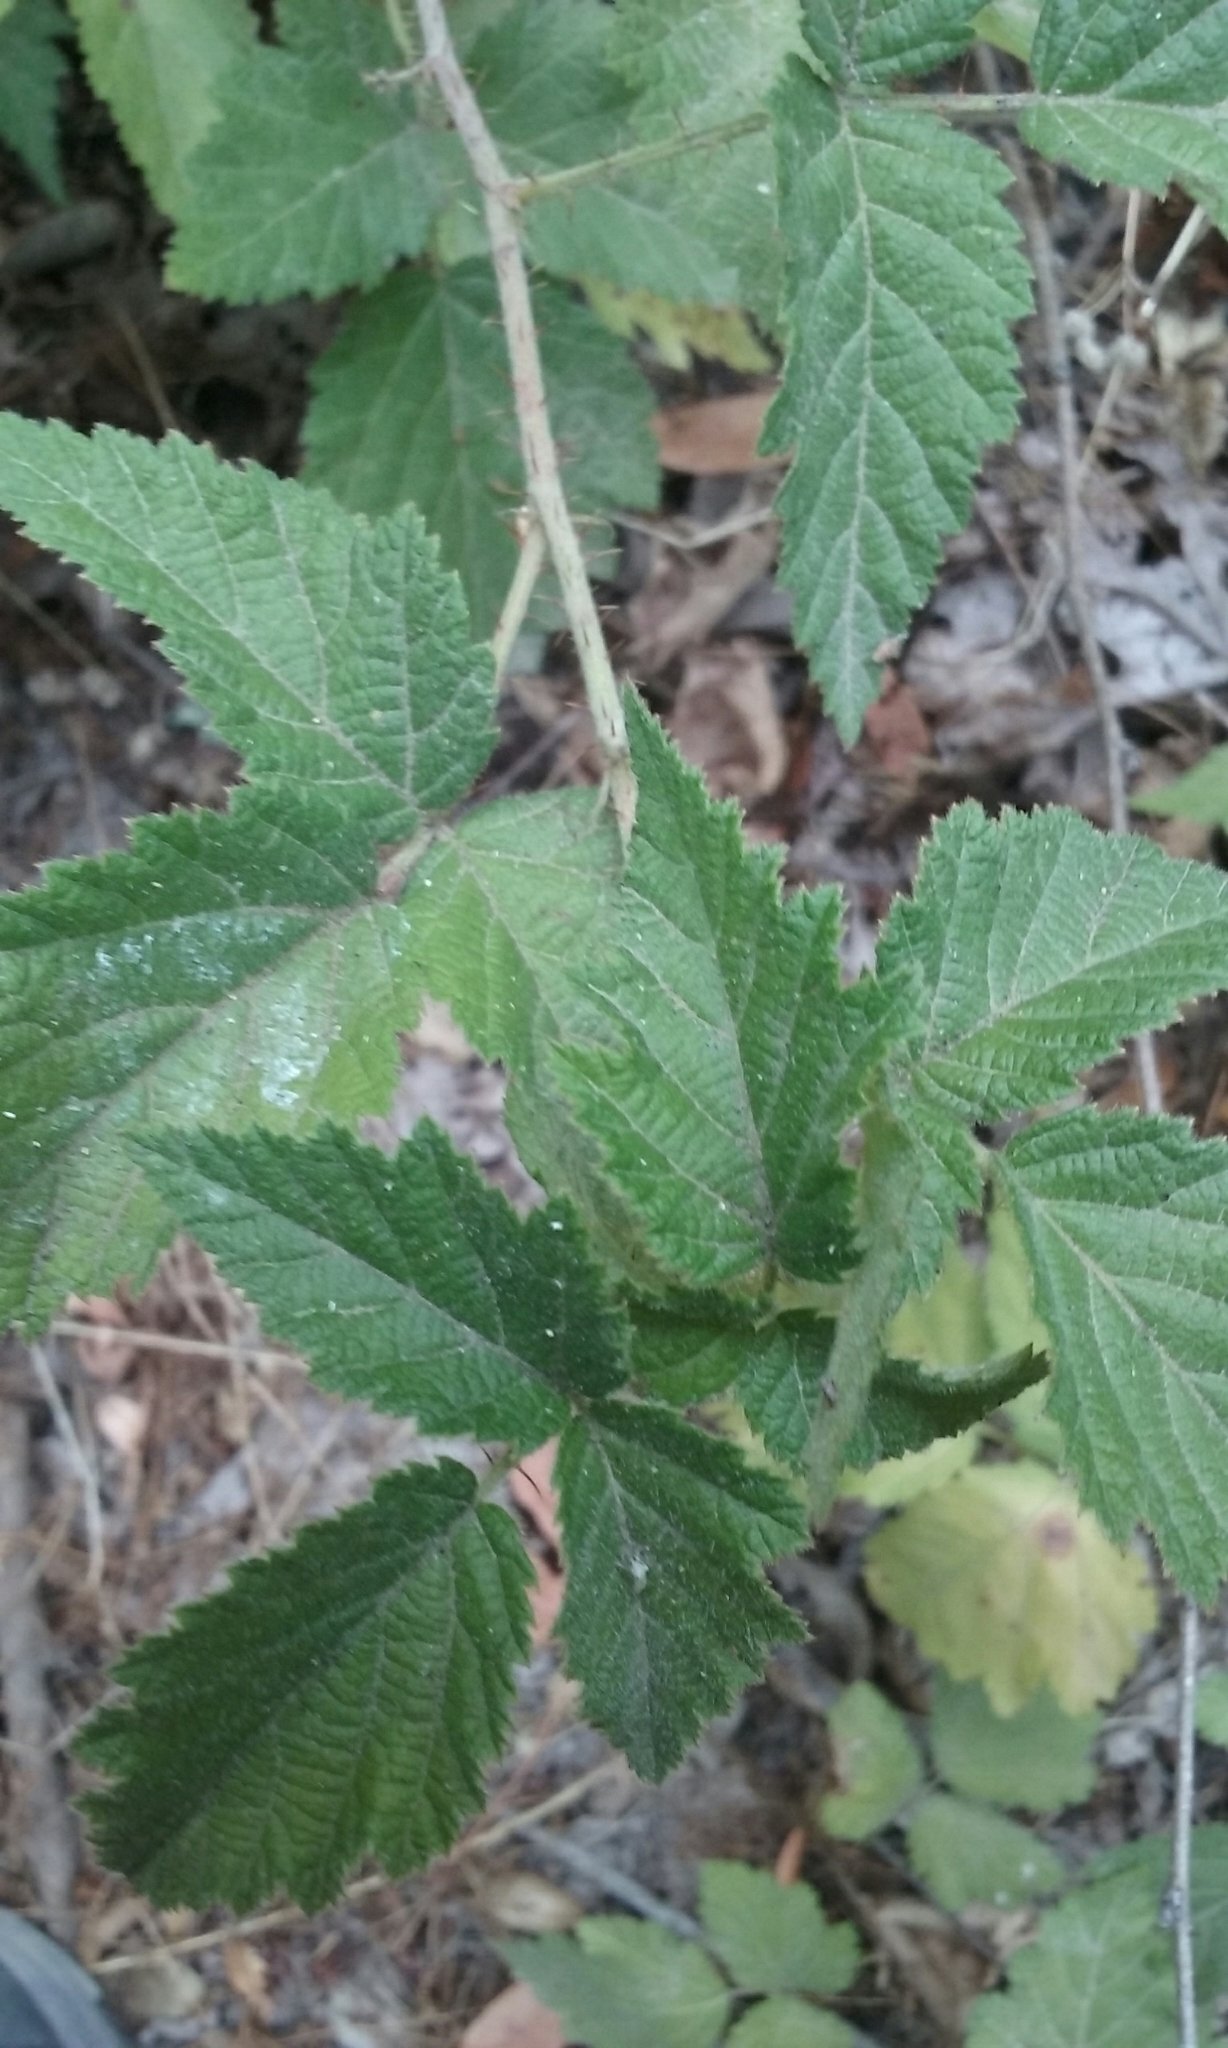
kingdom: Plantae
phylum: Tracheophyta
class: Magnoliopsida
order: Rosales
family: Rosaceae
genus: Rubus
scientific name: Rubus ursinus
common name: Pacific blackberry
